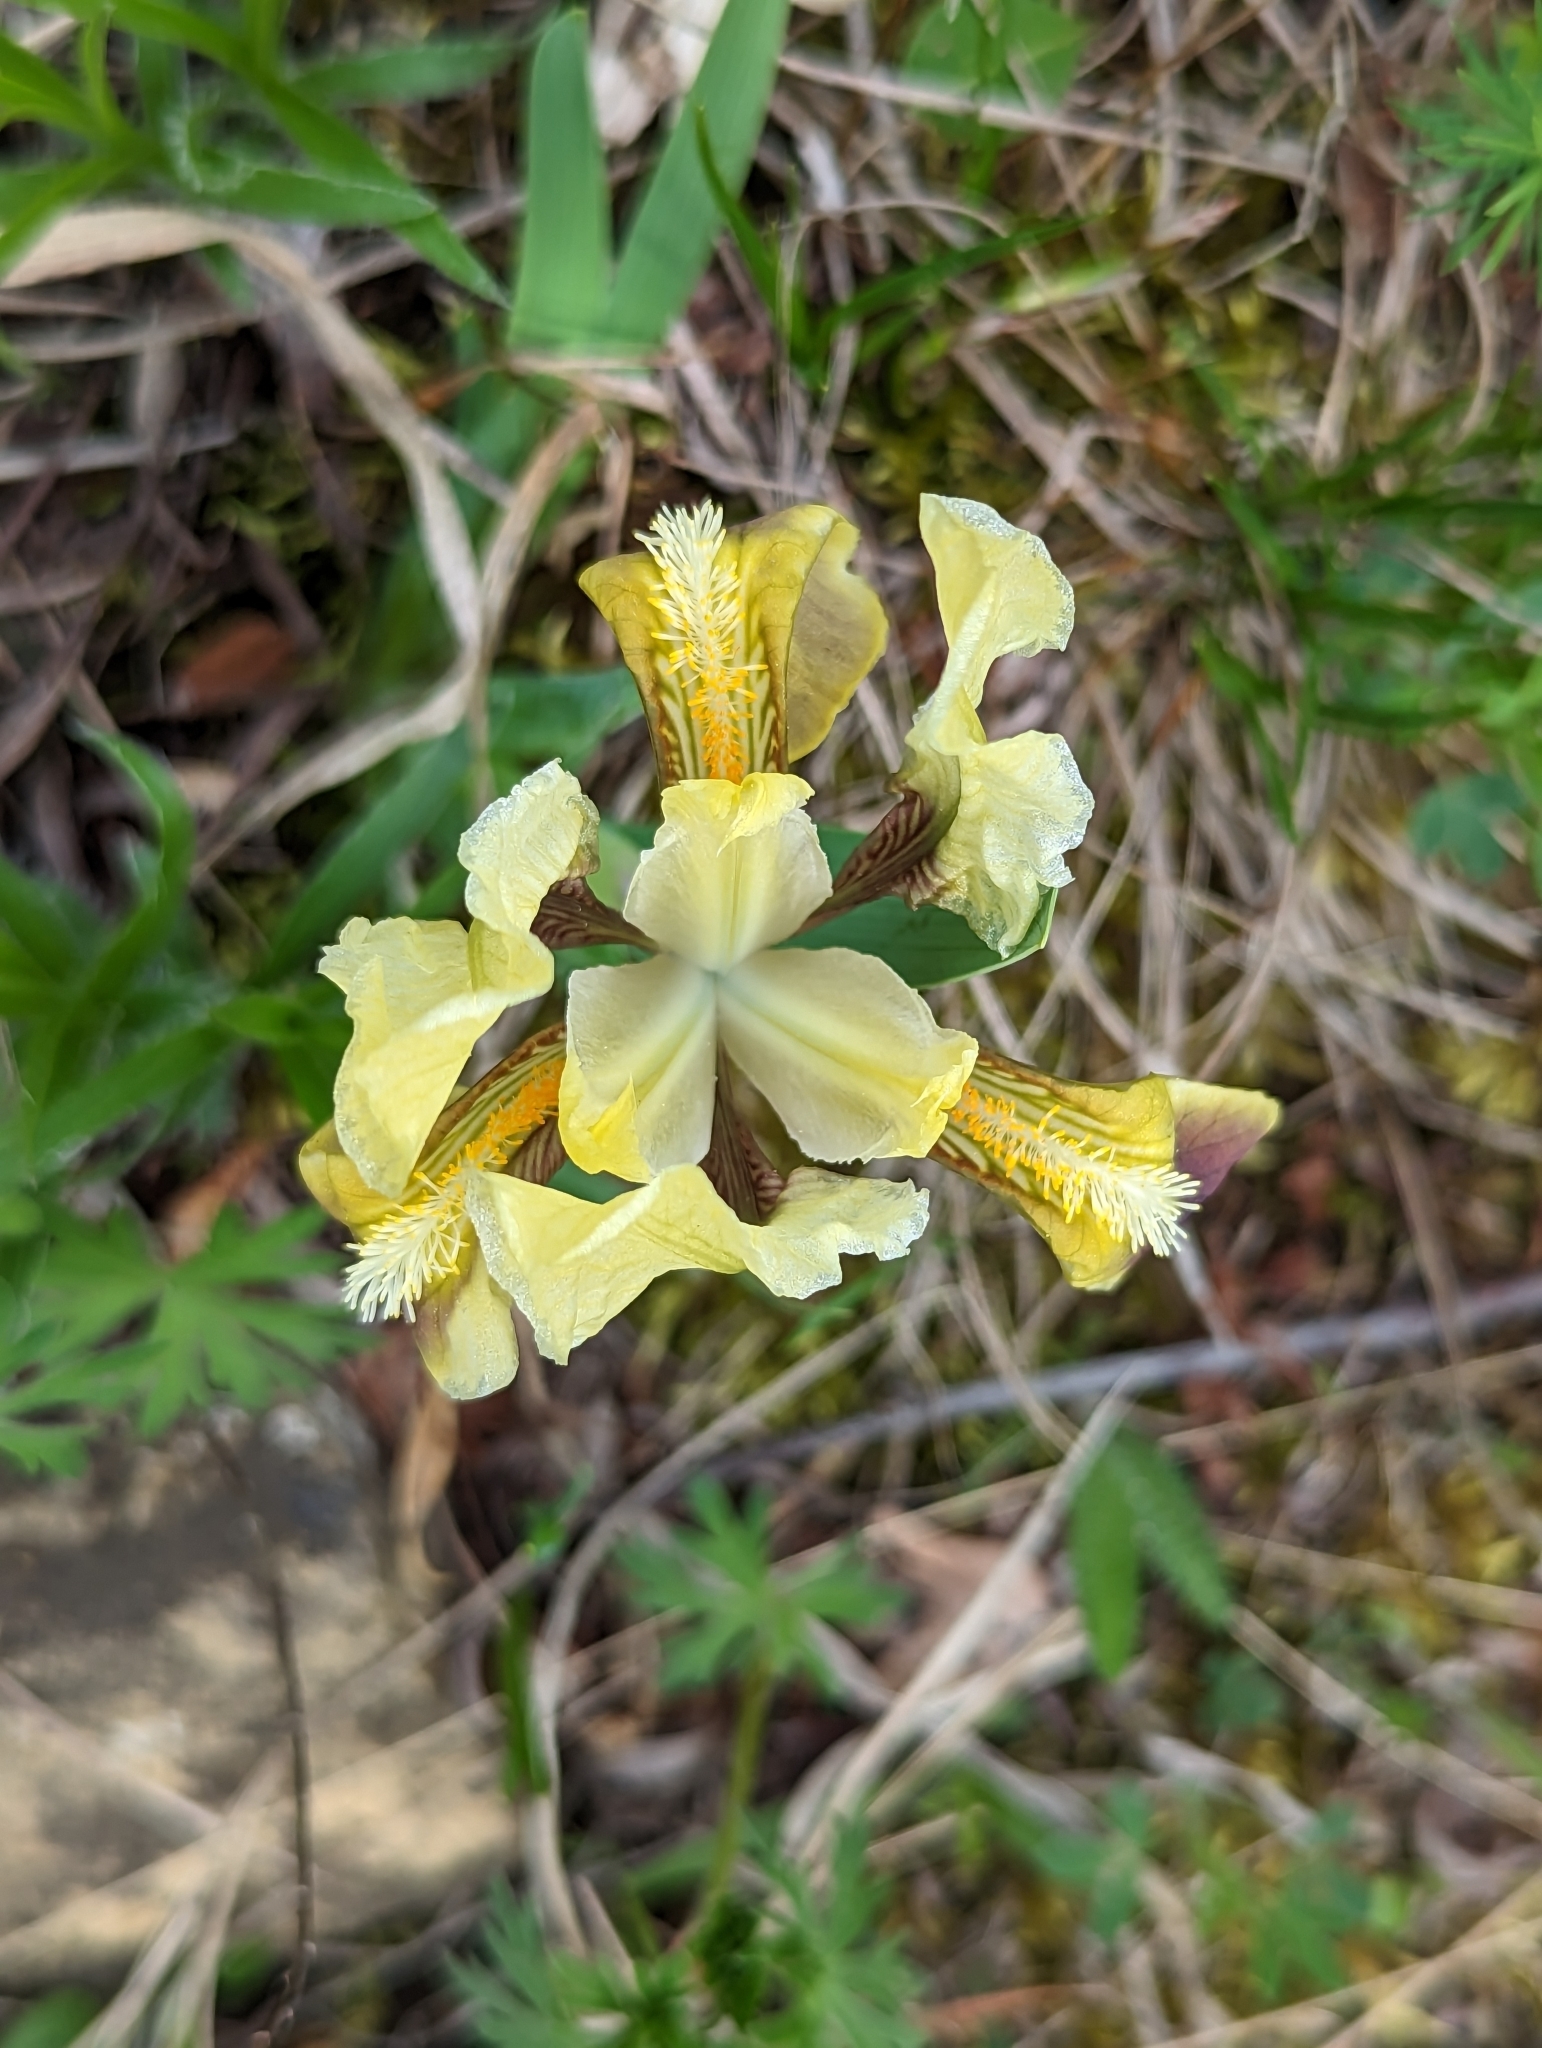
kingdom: Plantae
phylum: Tracheophyta
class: Liliopsida
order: Asparagales
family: Iridaceae
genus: Iris
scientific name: Iris pumila
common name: Dwarf iris
